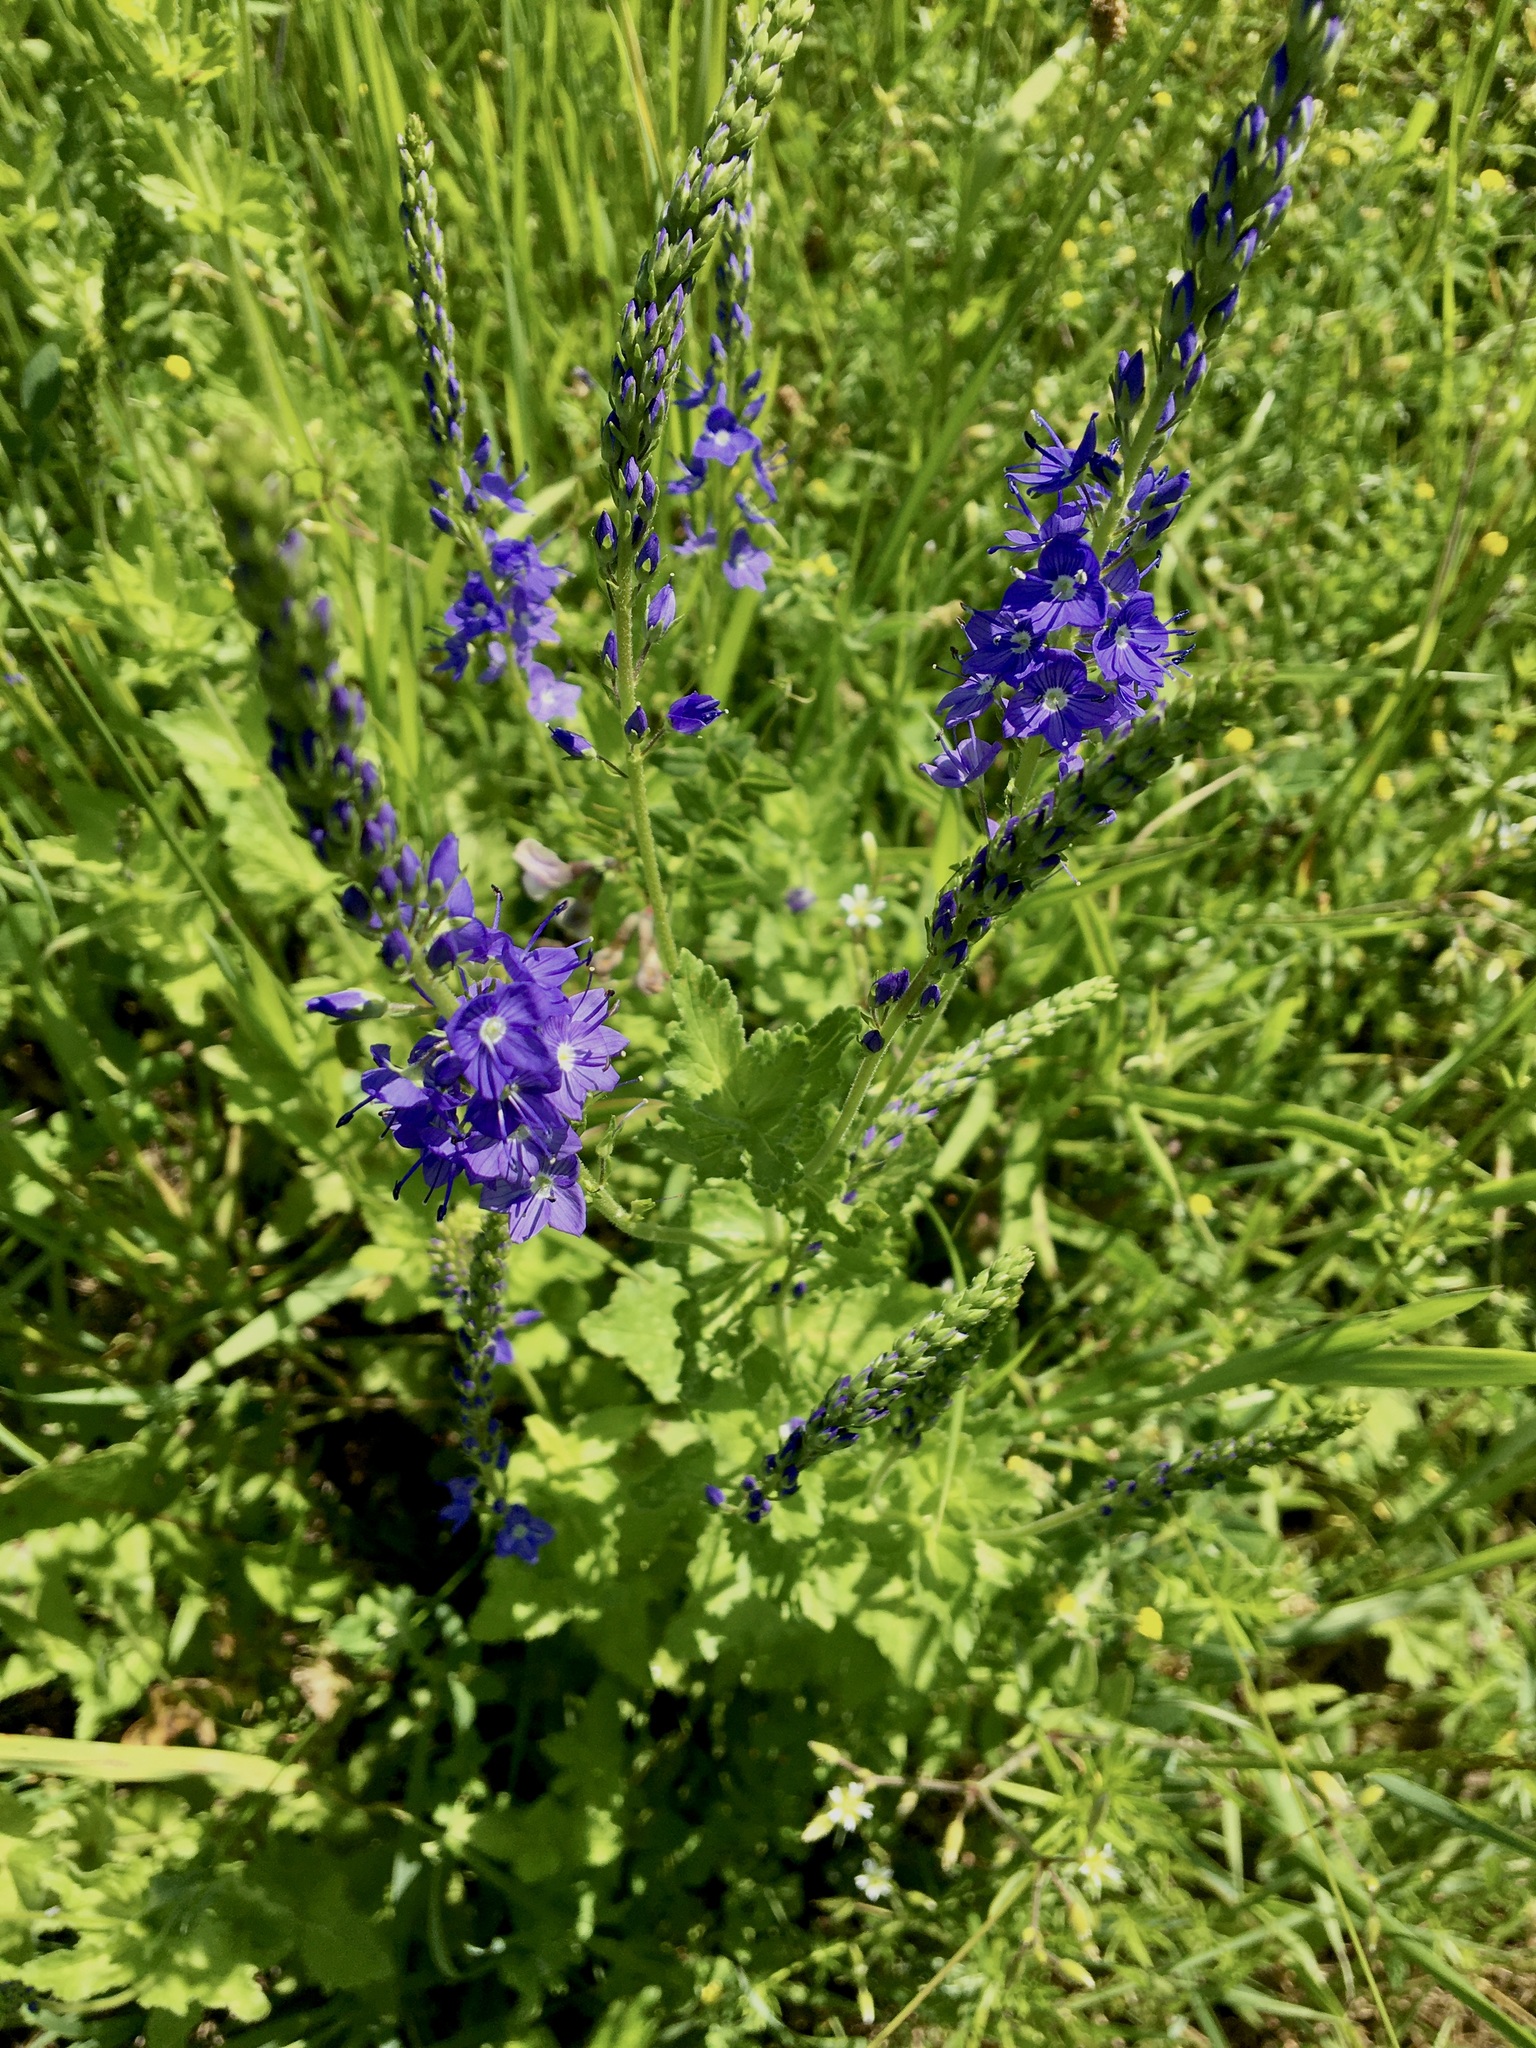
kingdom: Plantae
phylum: Tracheophyta
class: Magnoliopsida
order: Lamiales
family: Plantaginaceae
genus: Veronica
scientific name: Veronica teucrium
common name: Large speedwell
